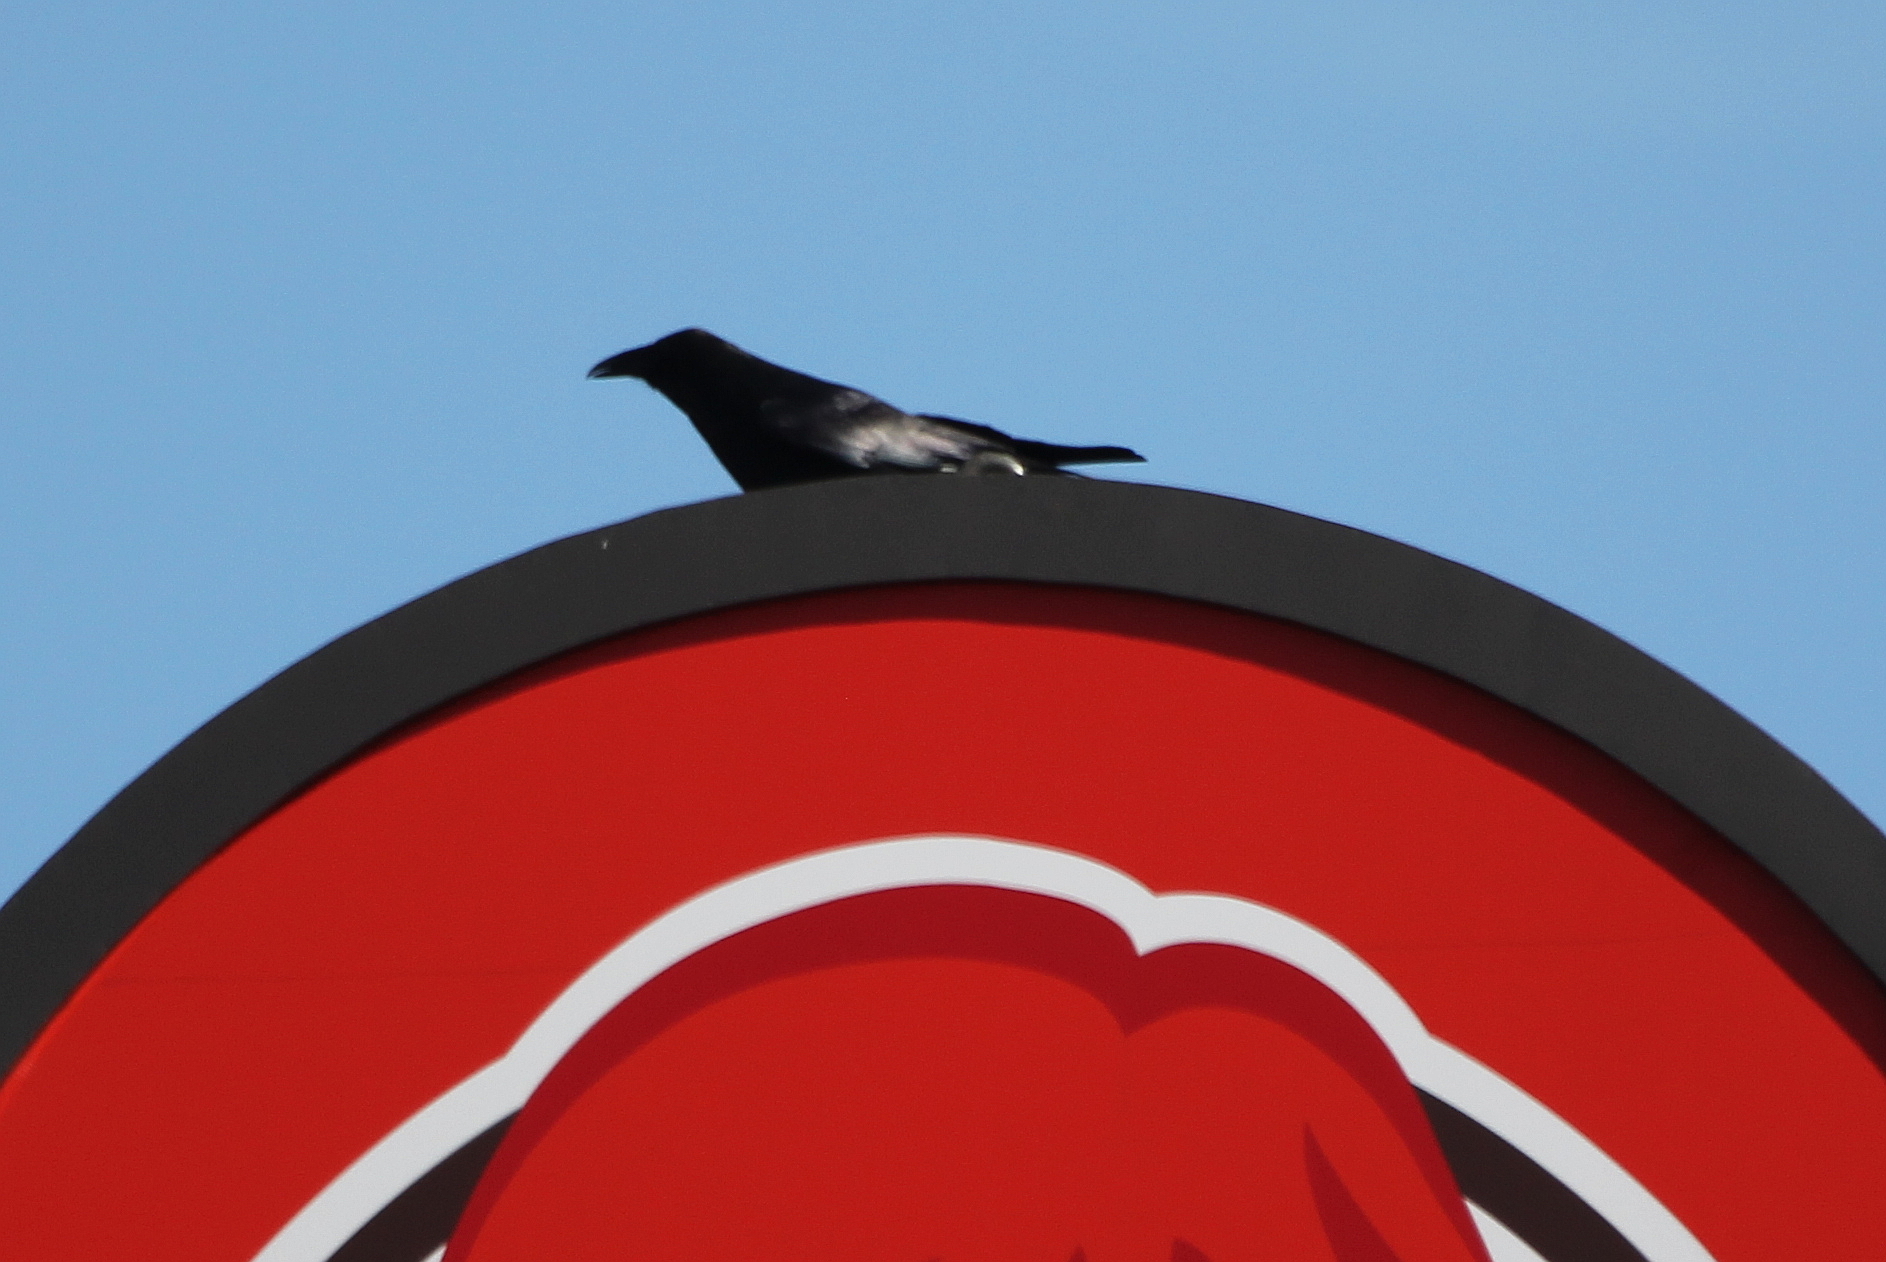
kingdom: Animalia
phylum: Chordata
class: Aves
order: Passeriformes
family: Corvidae
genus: Corvus
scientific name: Corvus corax
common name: Common raven
